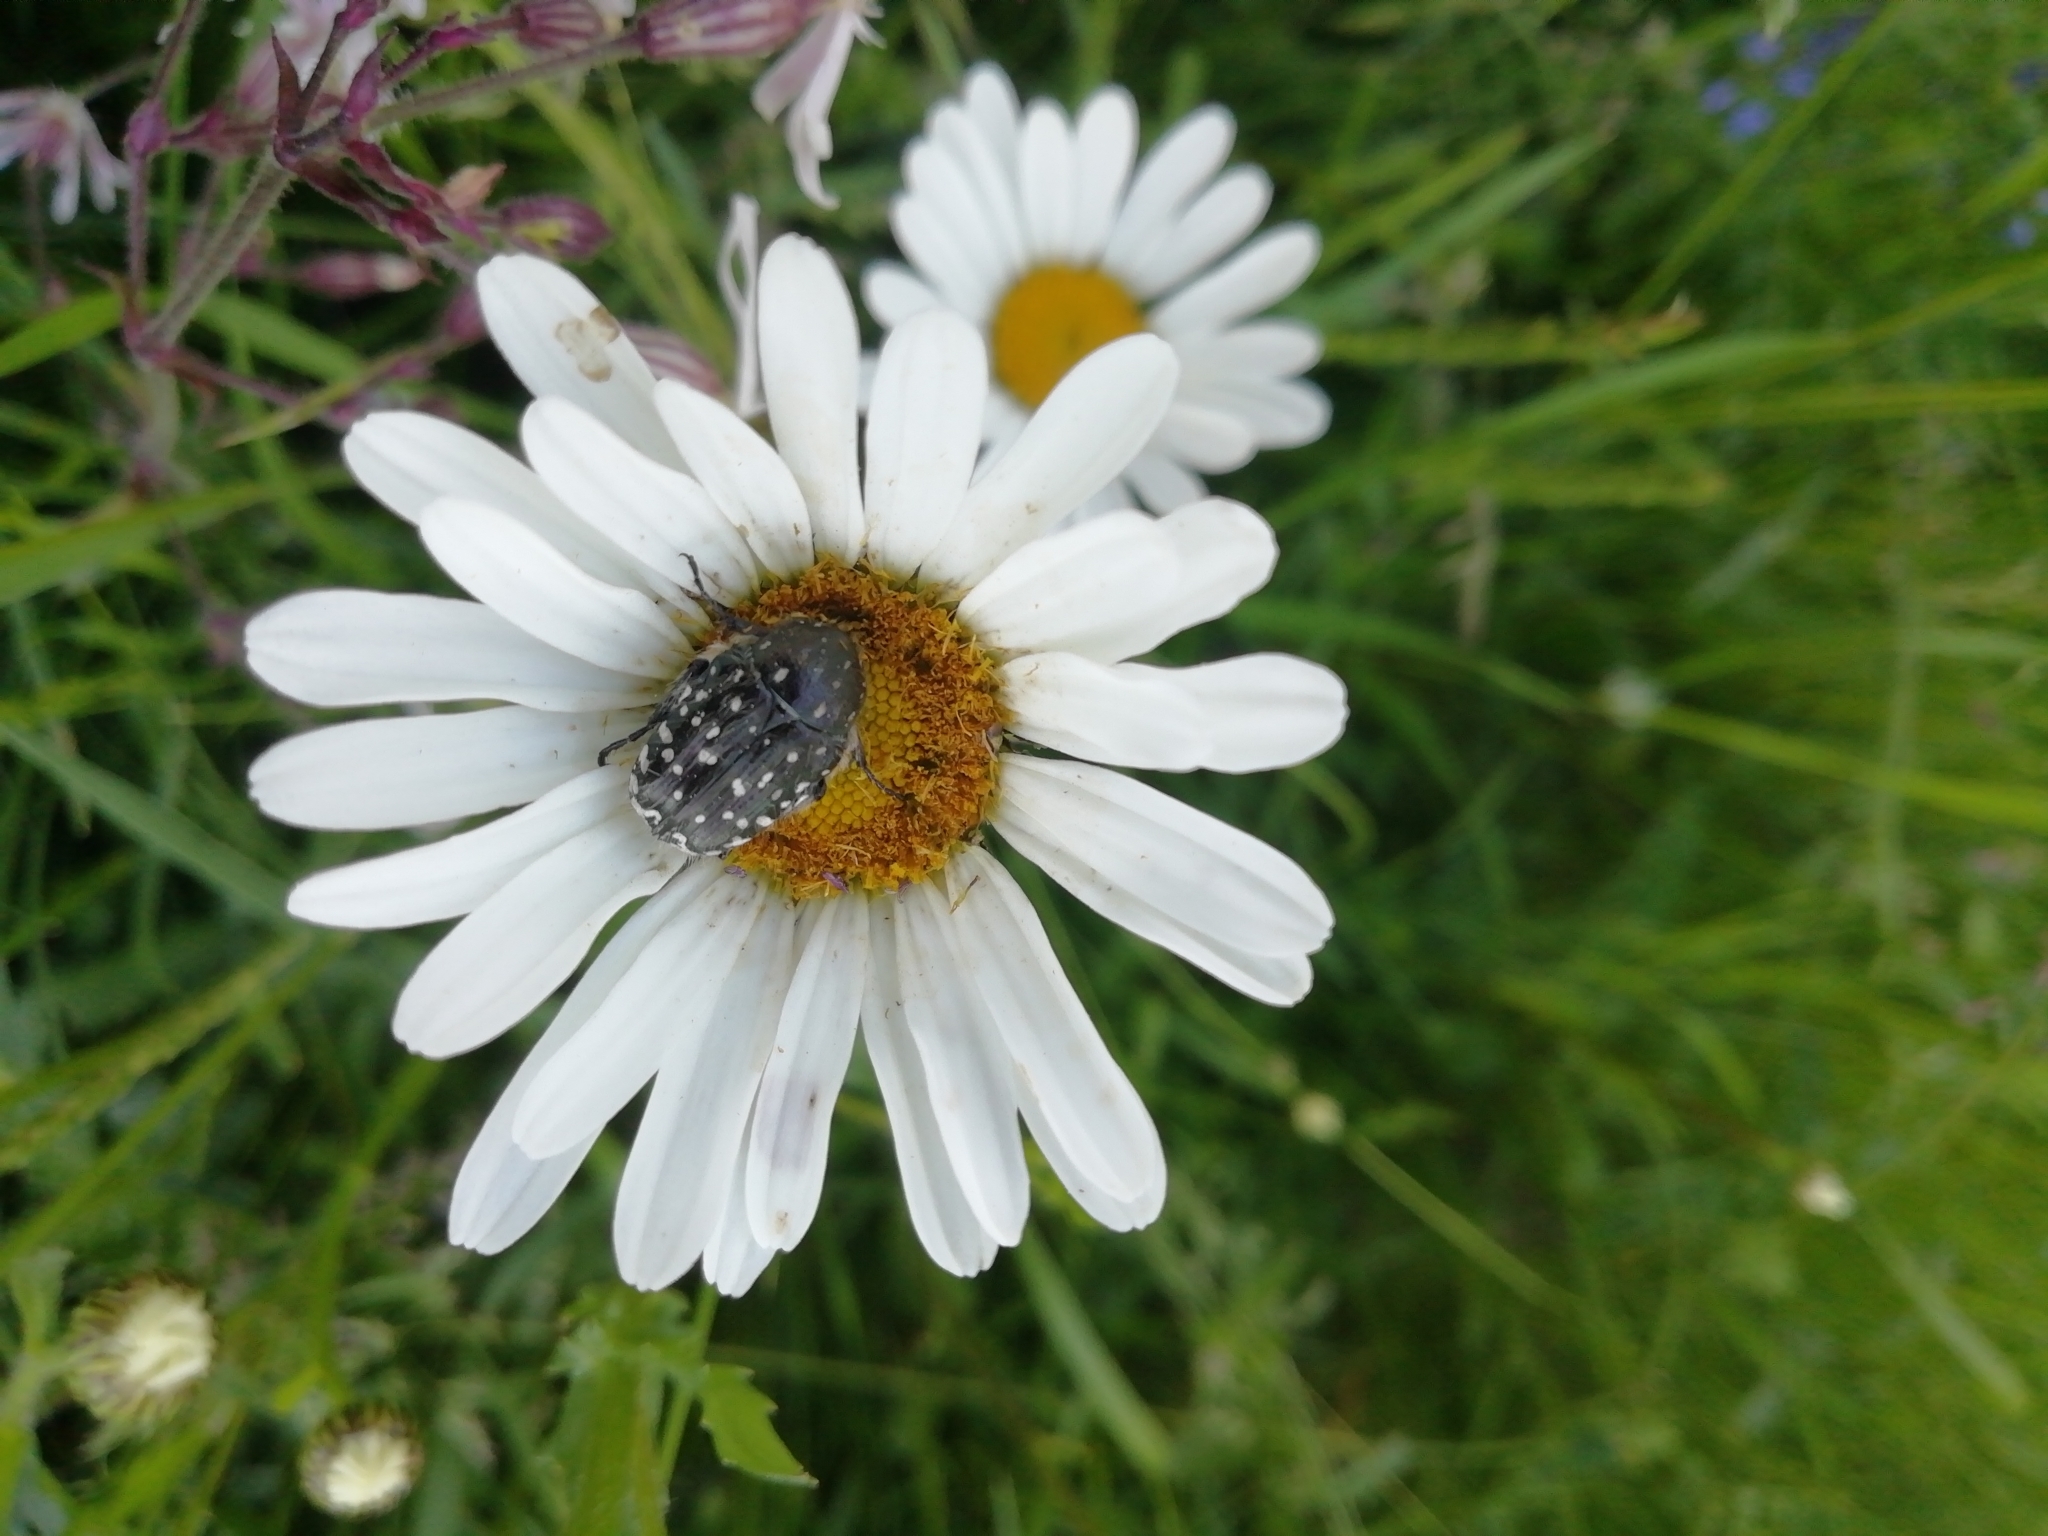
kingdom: Animalia
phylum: Arthropoda
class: Insecta
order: Coleoptera
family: Scarabaeidae
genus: Oxythyrea
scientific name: Oxythyrea funesta
